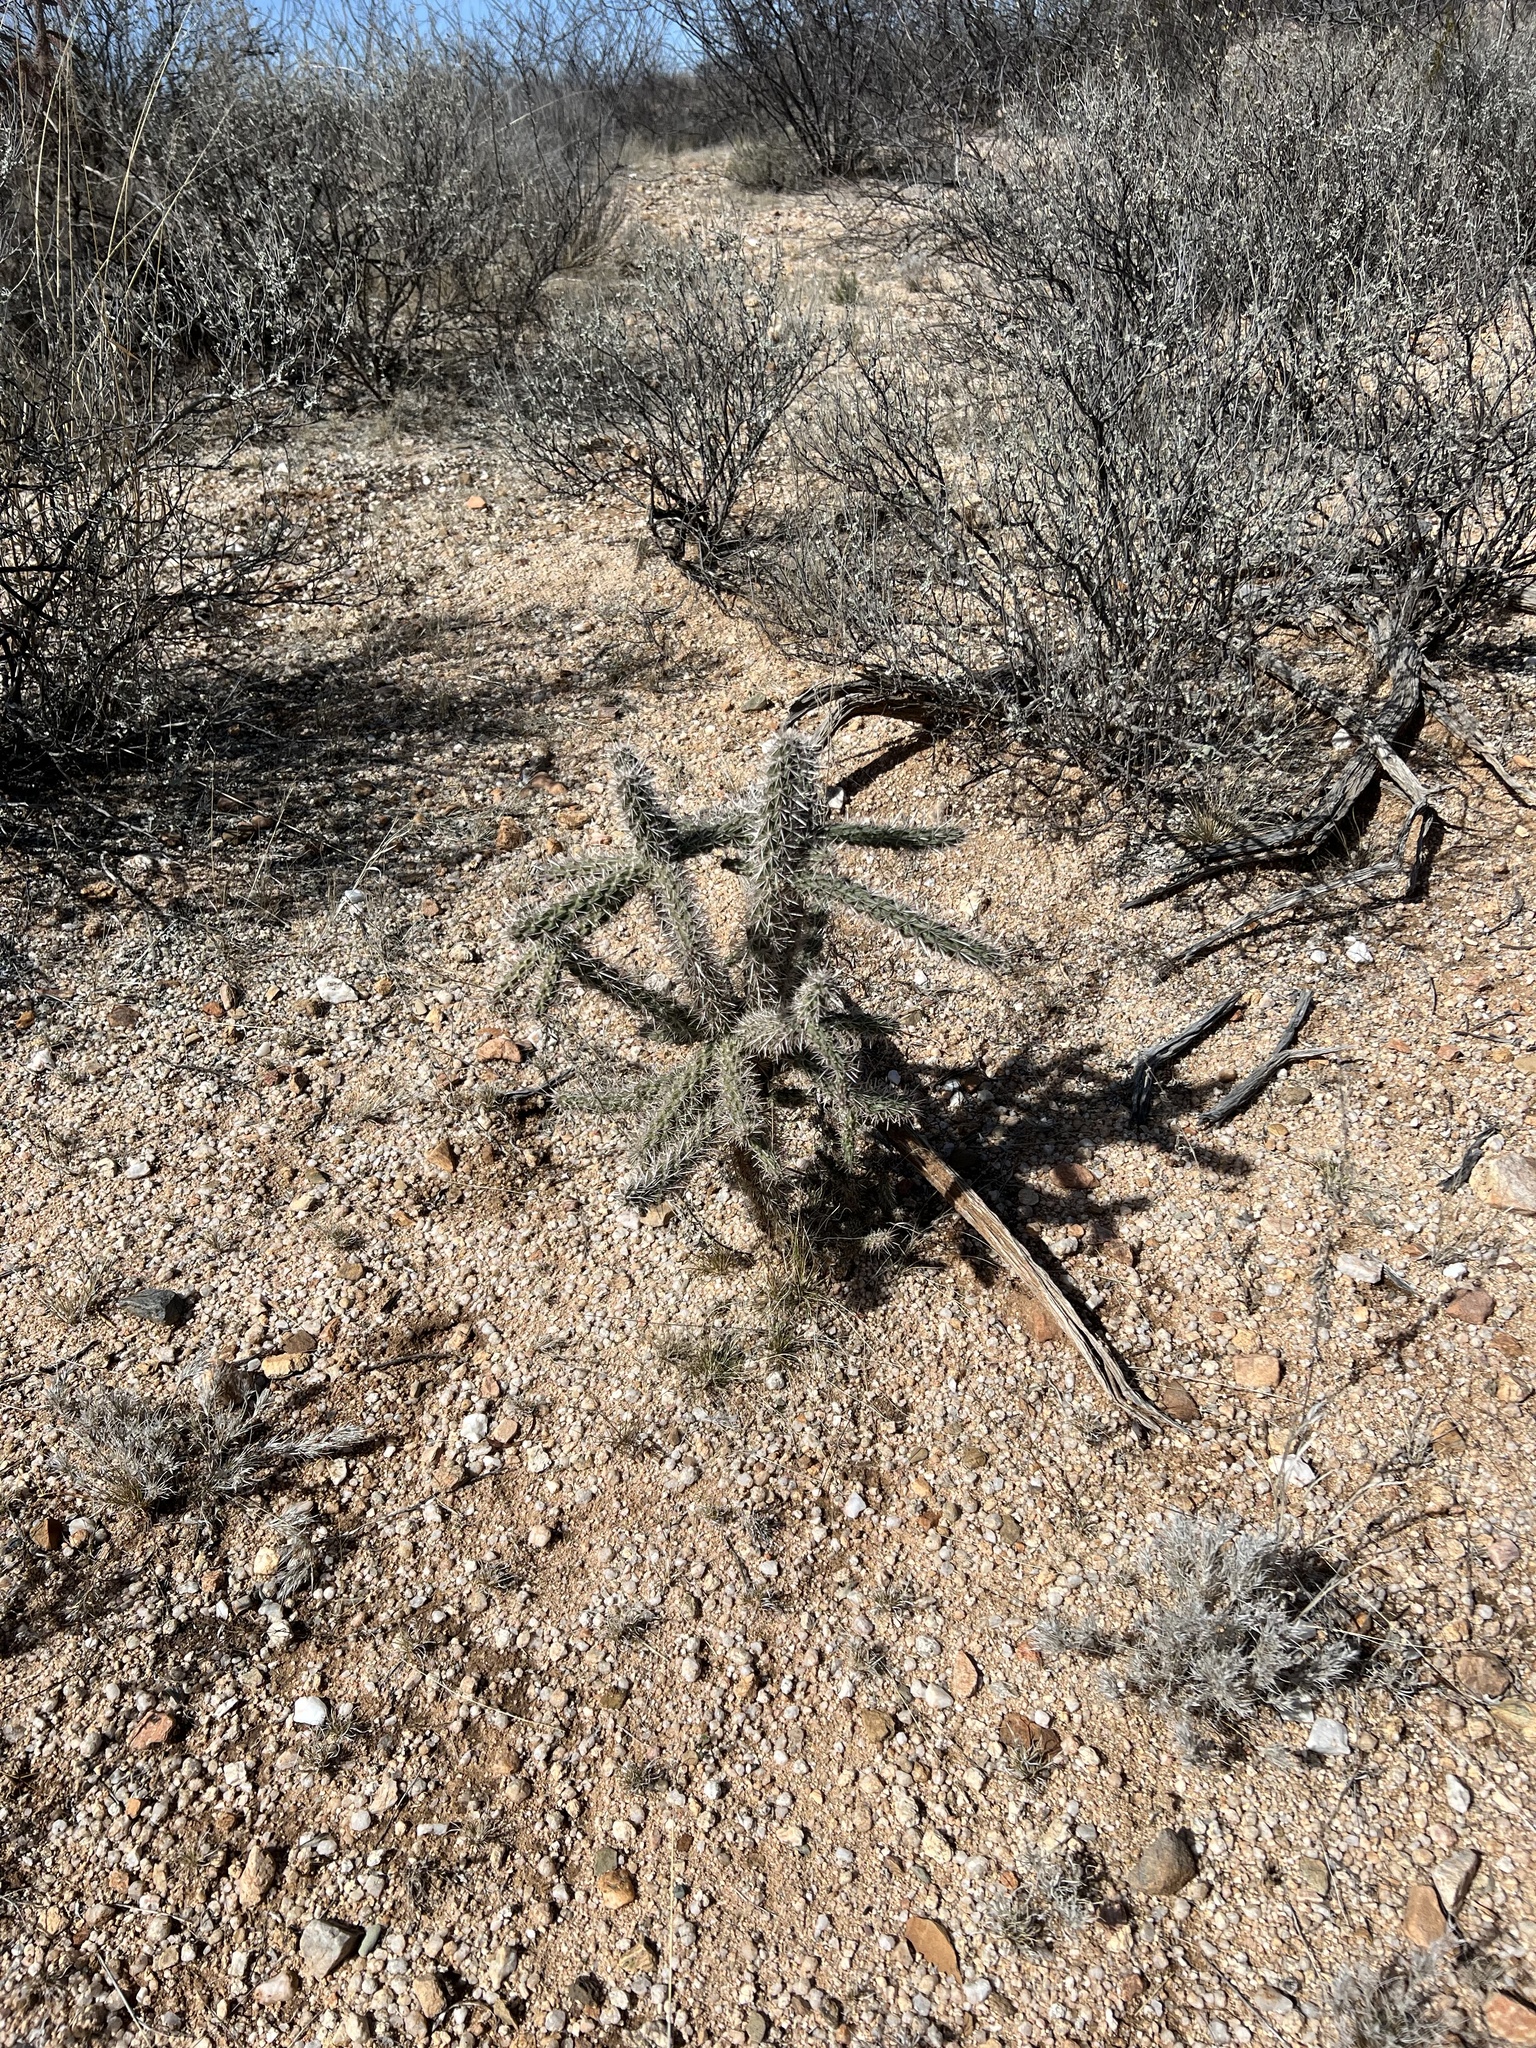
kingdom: Plantae
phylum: Tracheophyta
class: Magnoliopsida
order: Caryophyllales
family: Cactaceae
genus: Cylindropuntia
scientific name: Cylindropuntia imbricata
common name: Candelabrum cactus
